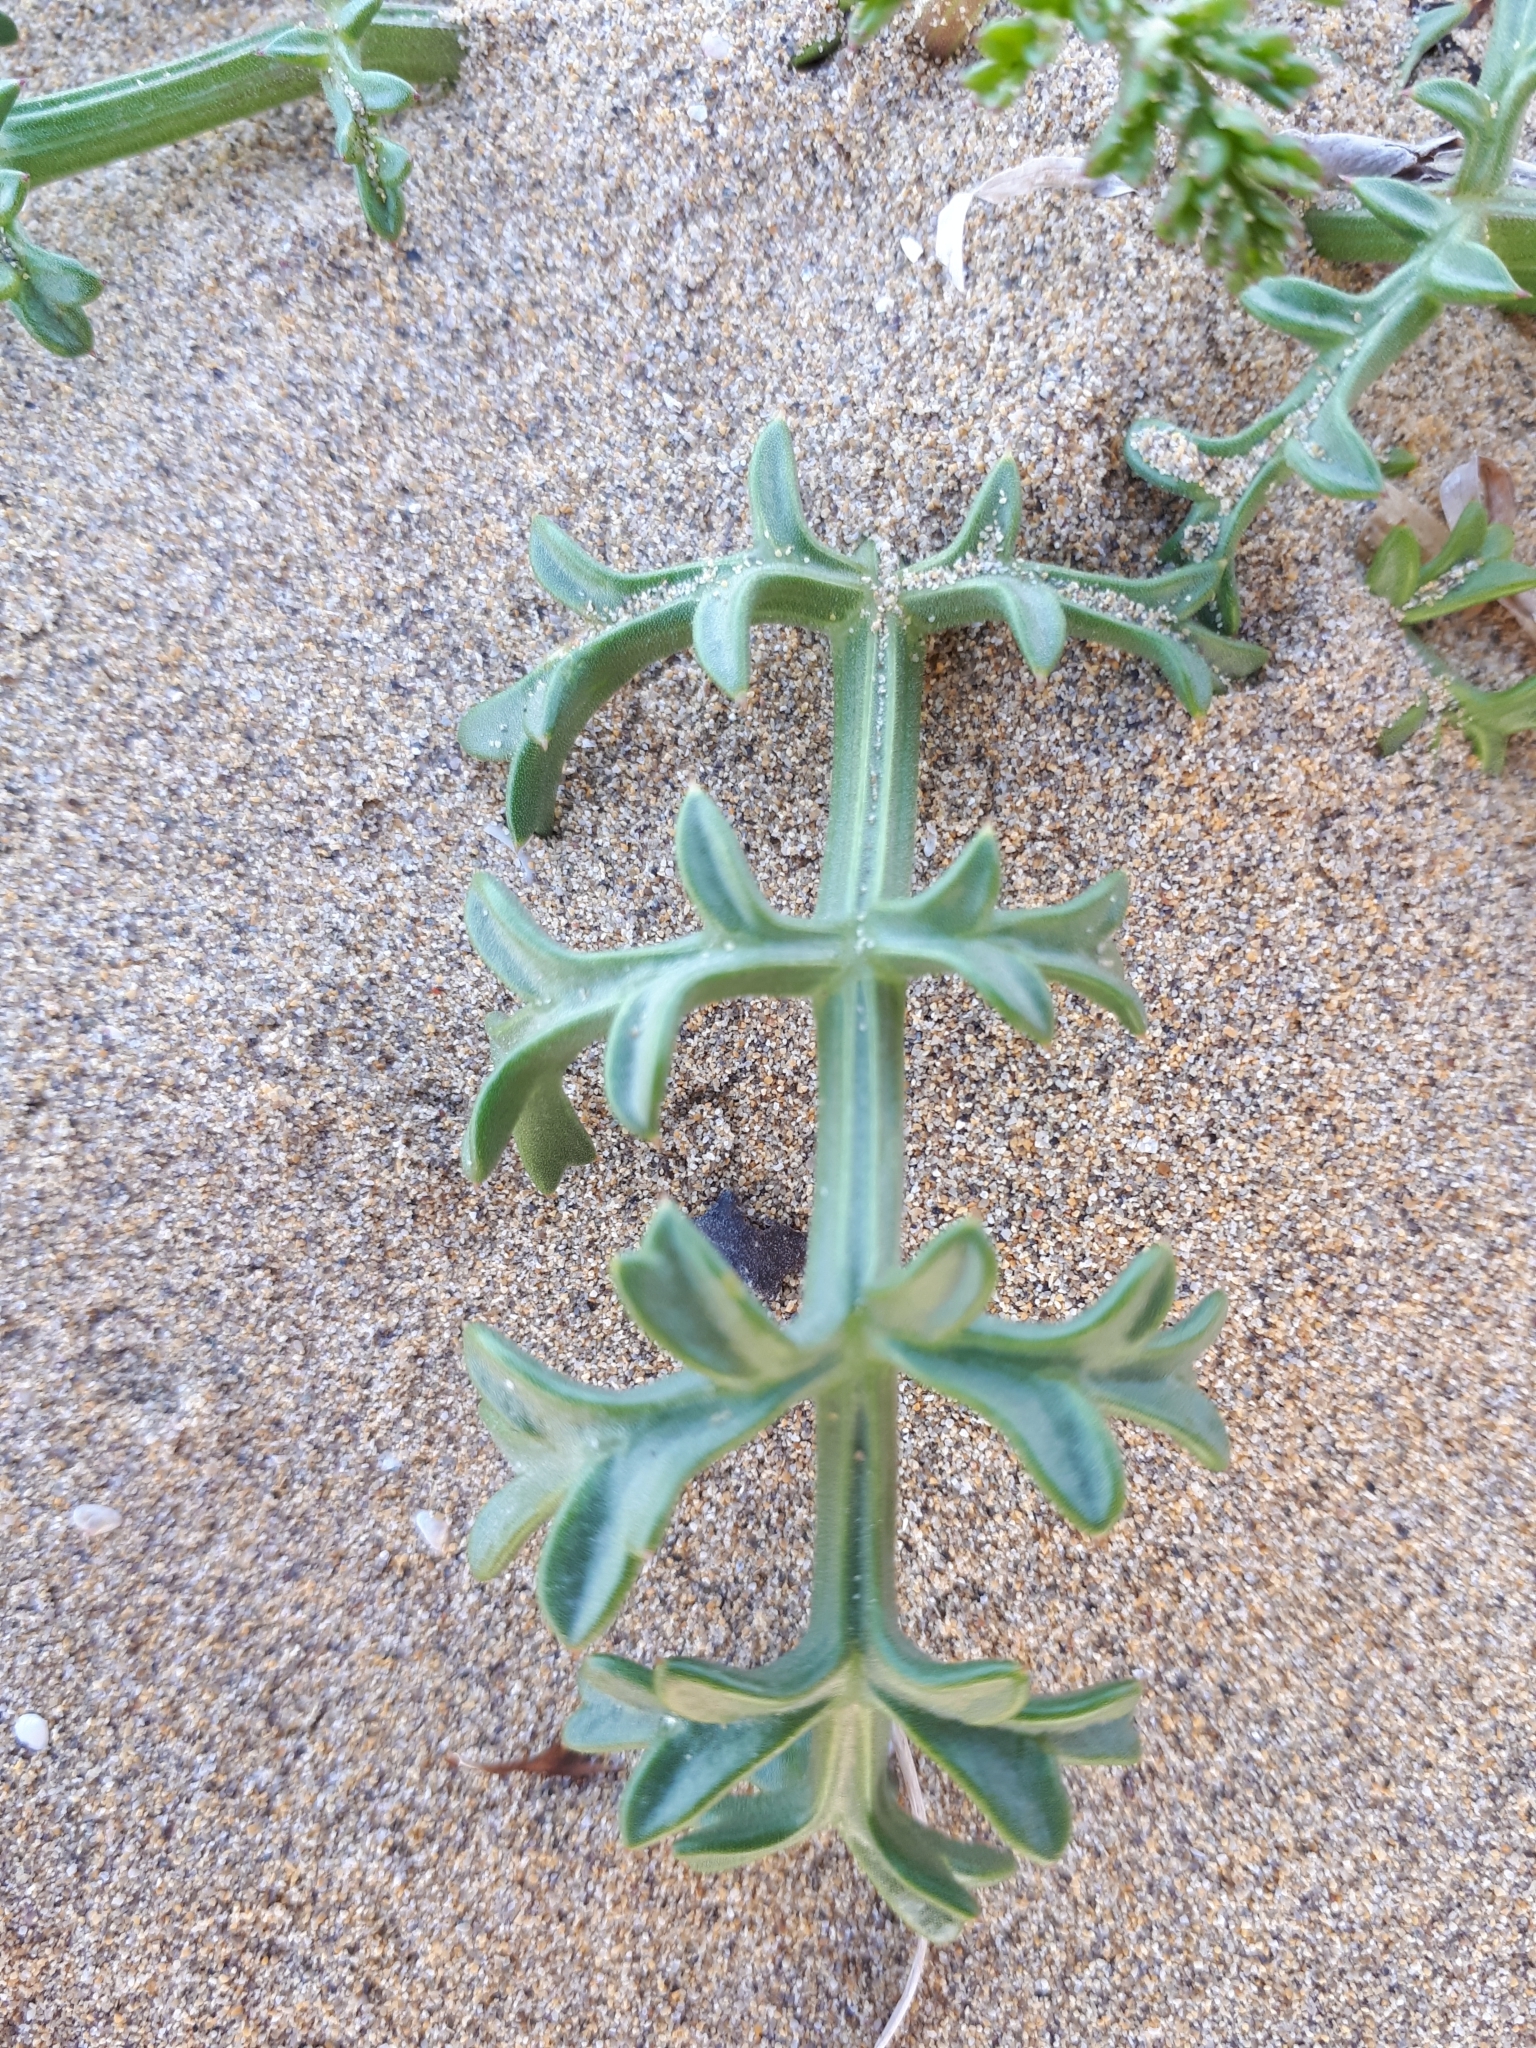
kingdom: Plantae
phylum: Tracheophyta
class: Magnoliopsida
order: Apiales
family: Apiaceae
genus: Echinophora
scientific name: Echinophora spinosa
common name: Prickly samphire
